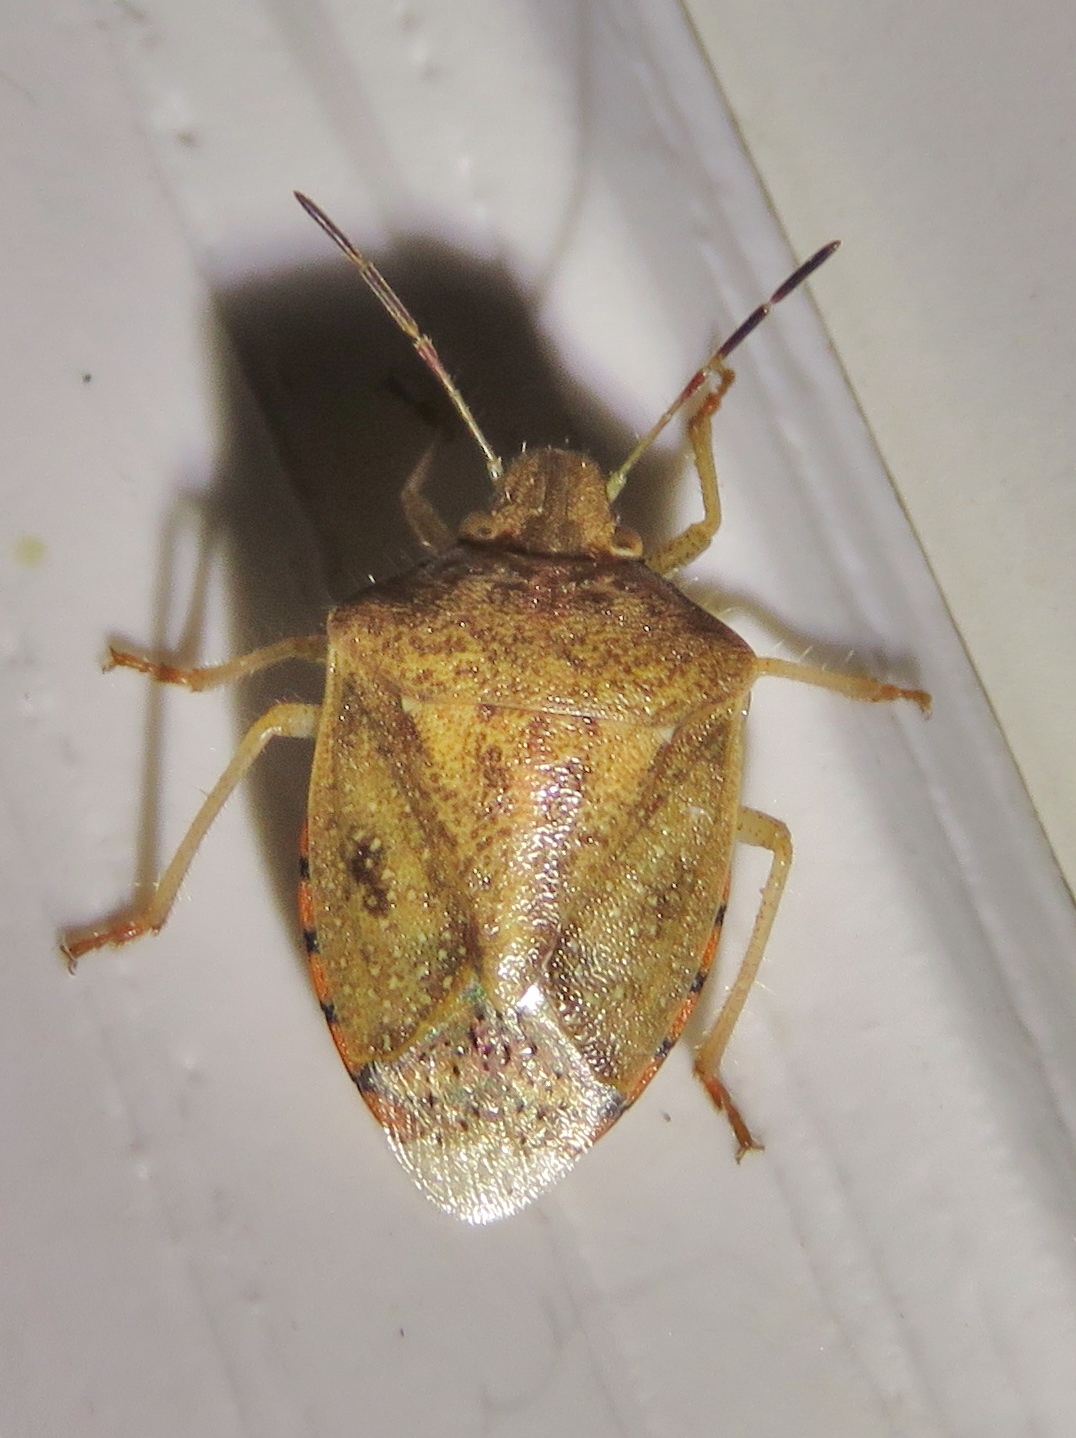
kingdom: Animalia
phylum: Arthropoda
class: Insecta
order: Hemiptera
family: Pentatomidae
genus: Thyanta
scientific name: Thyanta custator
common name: Stink bug
